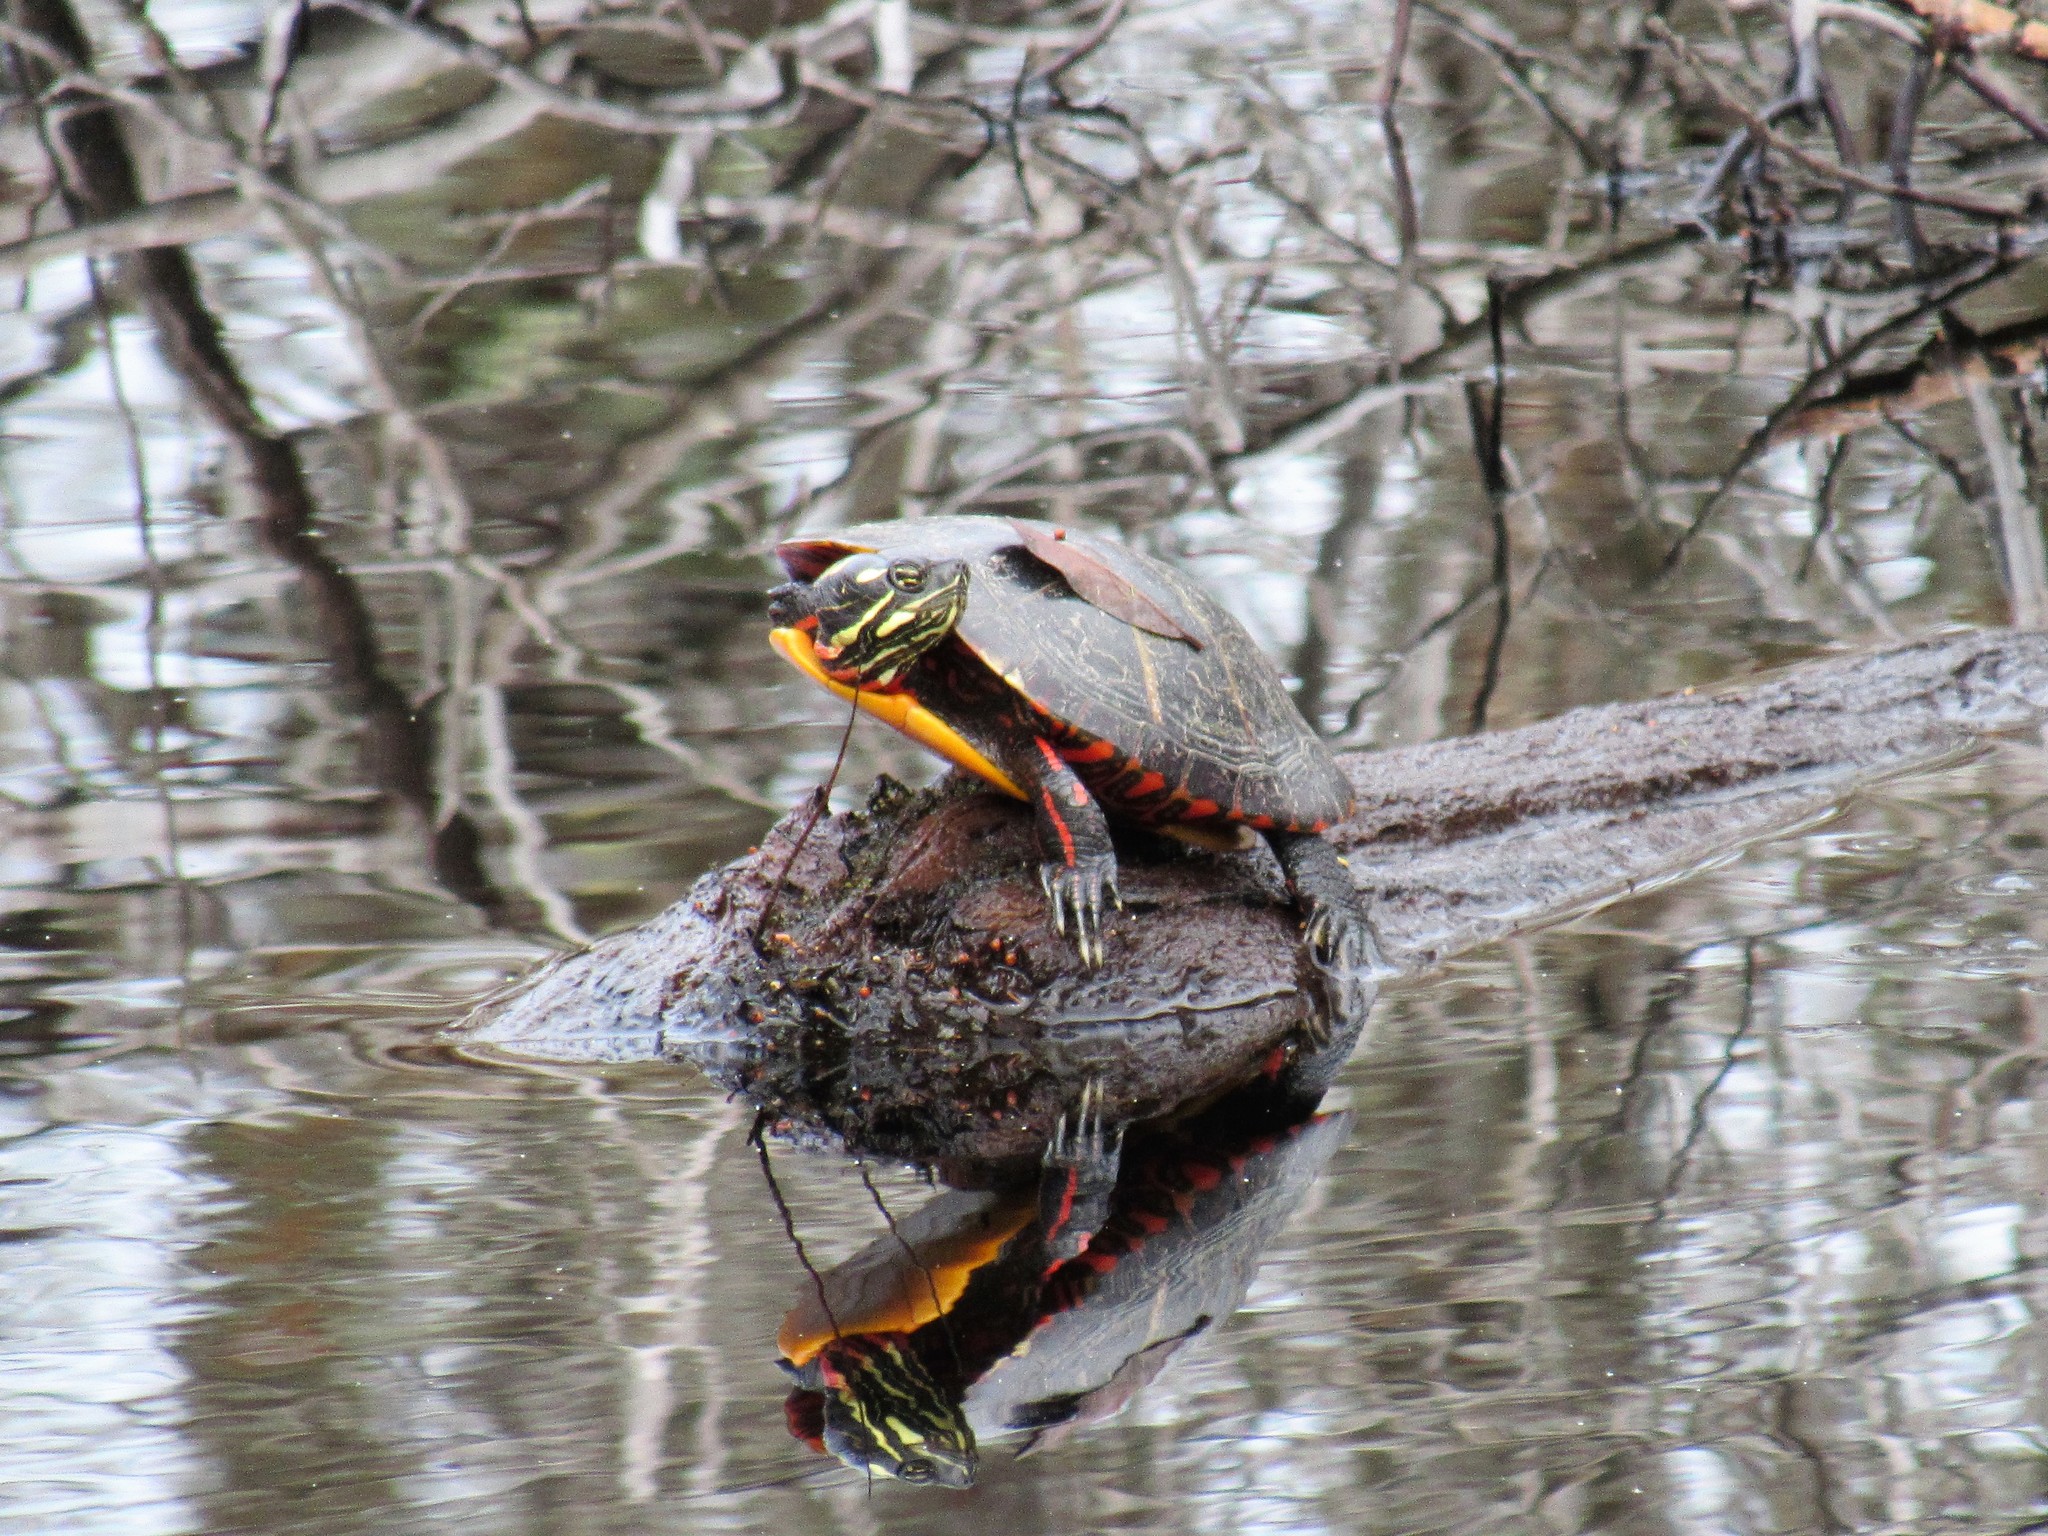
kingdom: Animalia
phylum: Chordata
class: Testudines
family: Emydidae
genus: Chrysemys
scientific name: Chrysemys picta
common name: Painted turtle
